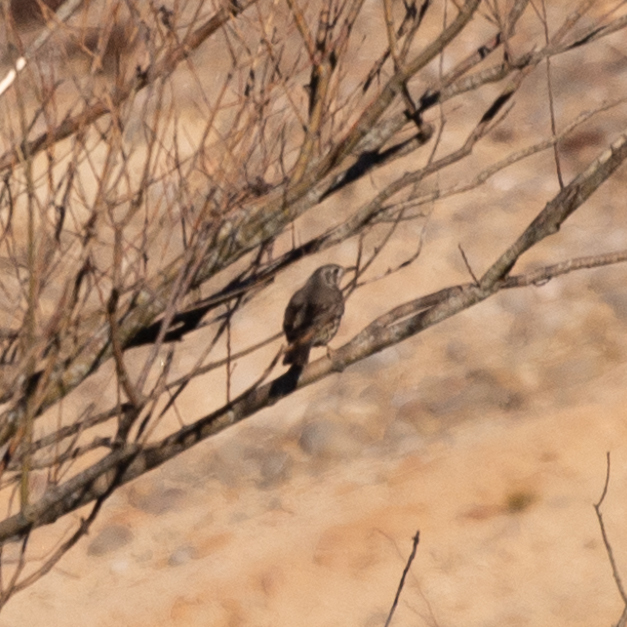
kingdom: Animalia
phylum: Chordata
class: Aves
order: Passeriformes
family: Turdidae
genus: Turdus
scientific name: Turdus viscivorus
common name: Mistle thrush
